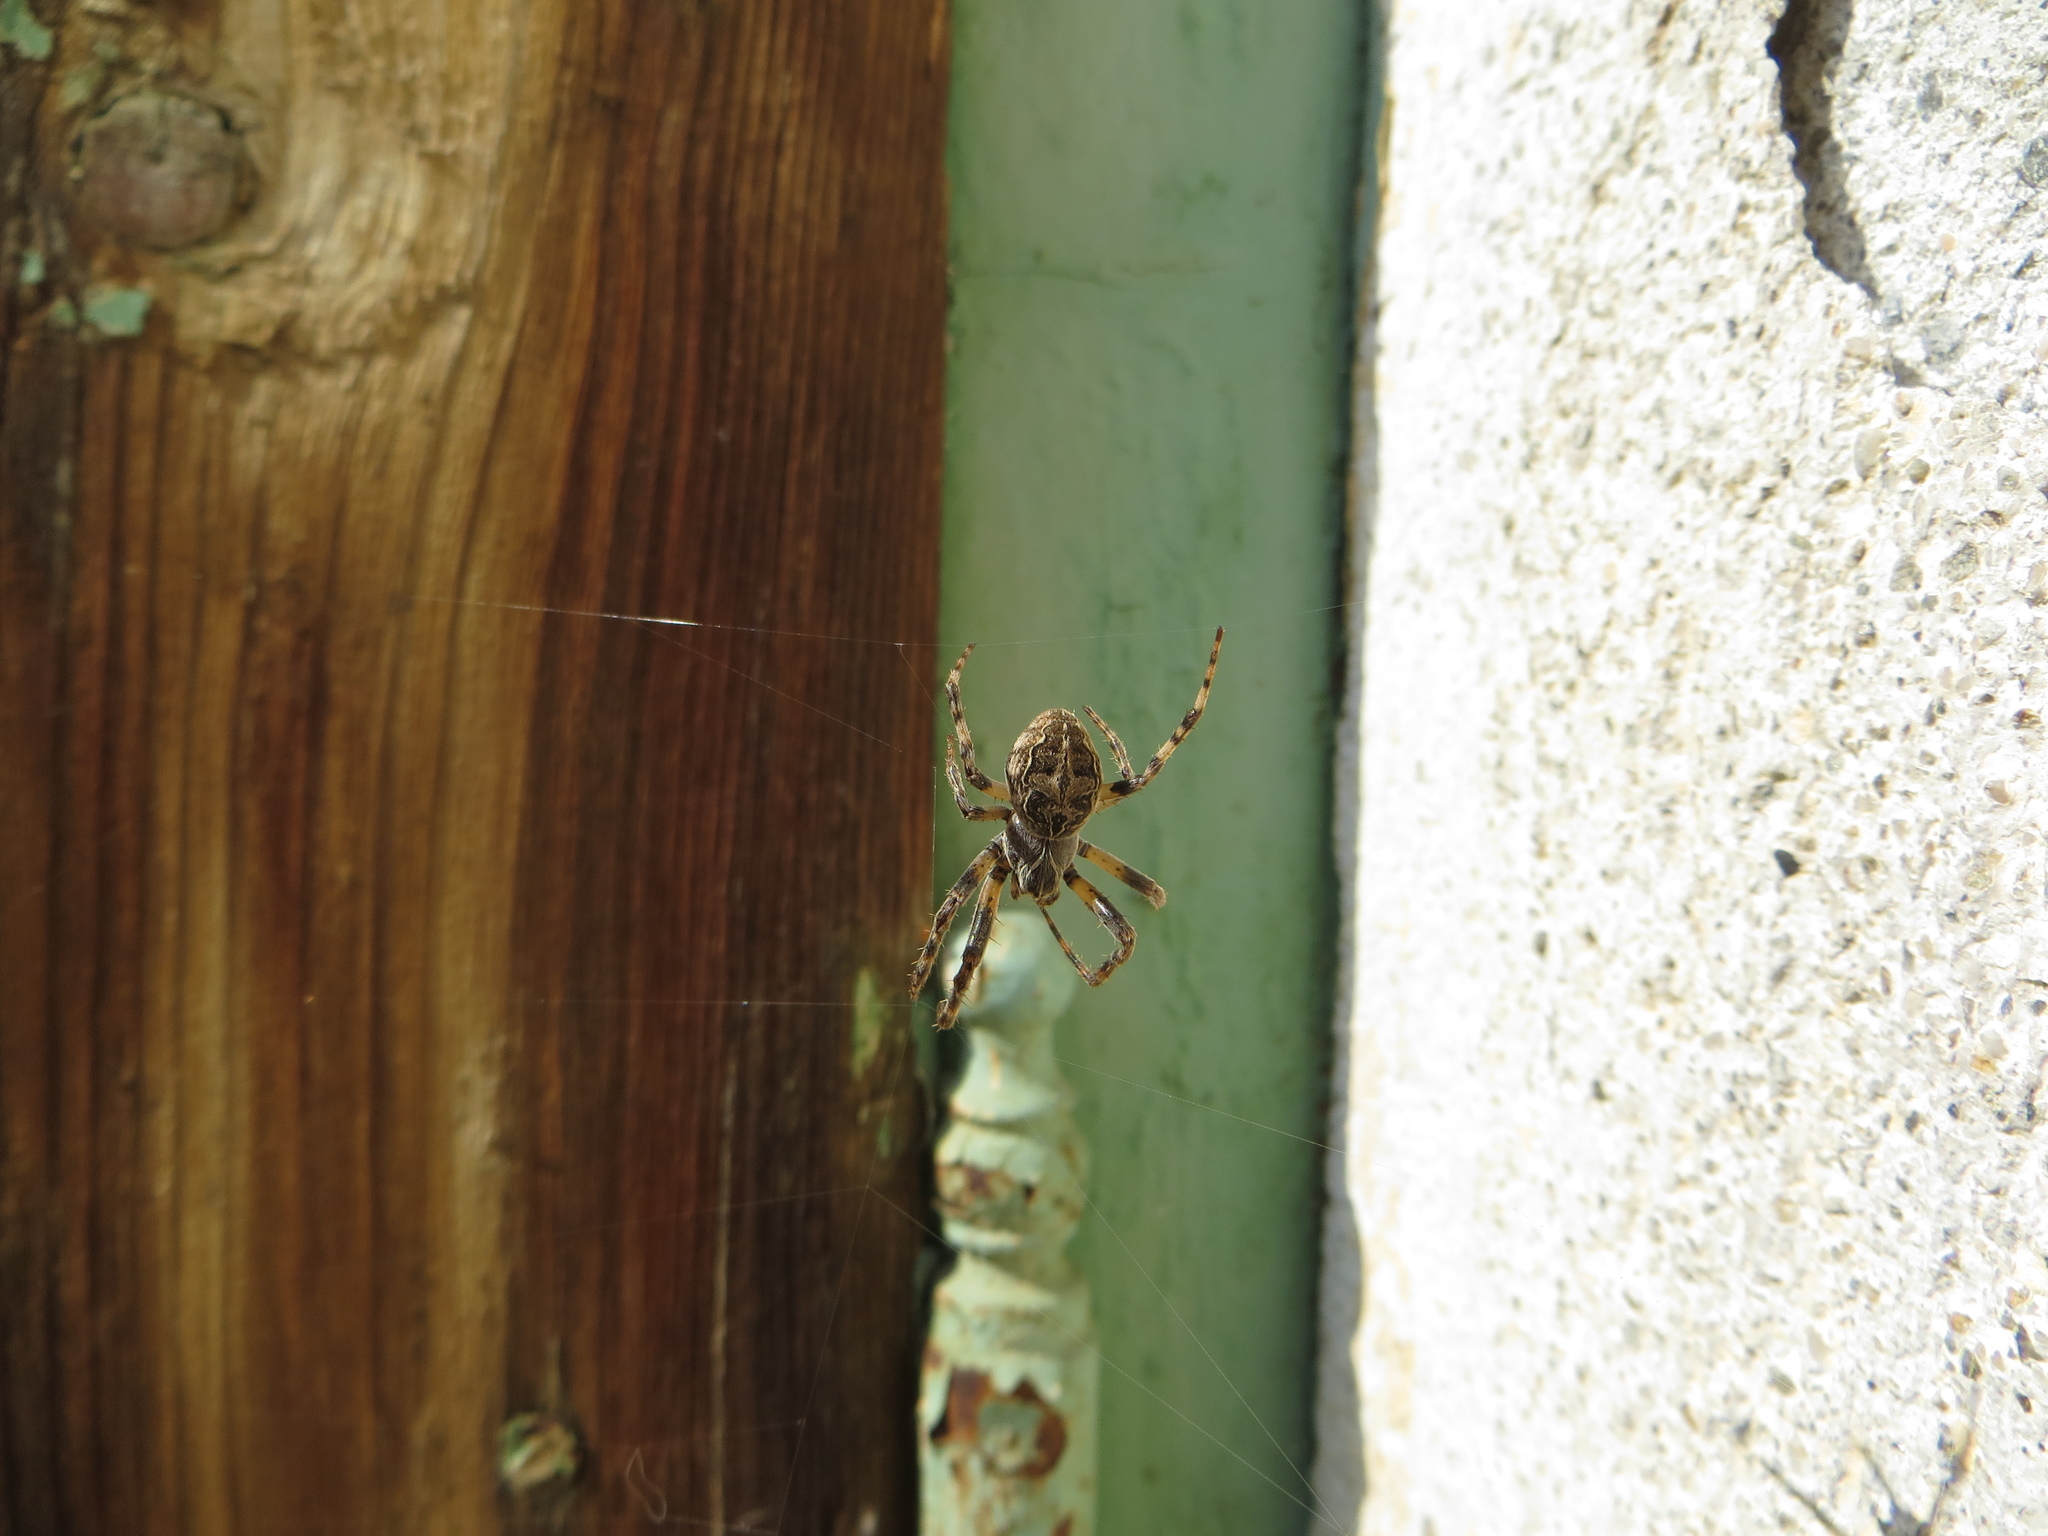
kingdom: Animalia
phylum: Arthropoda
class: Arachnida
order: Araneae
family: Araneidae
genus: Larinioides
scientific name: Larinioides sclopetarius
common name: Bridge orbweaver
